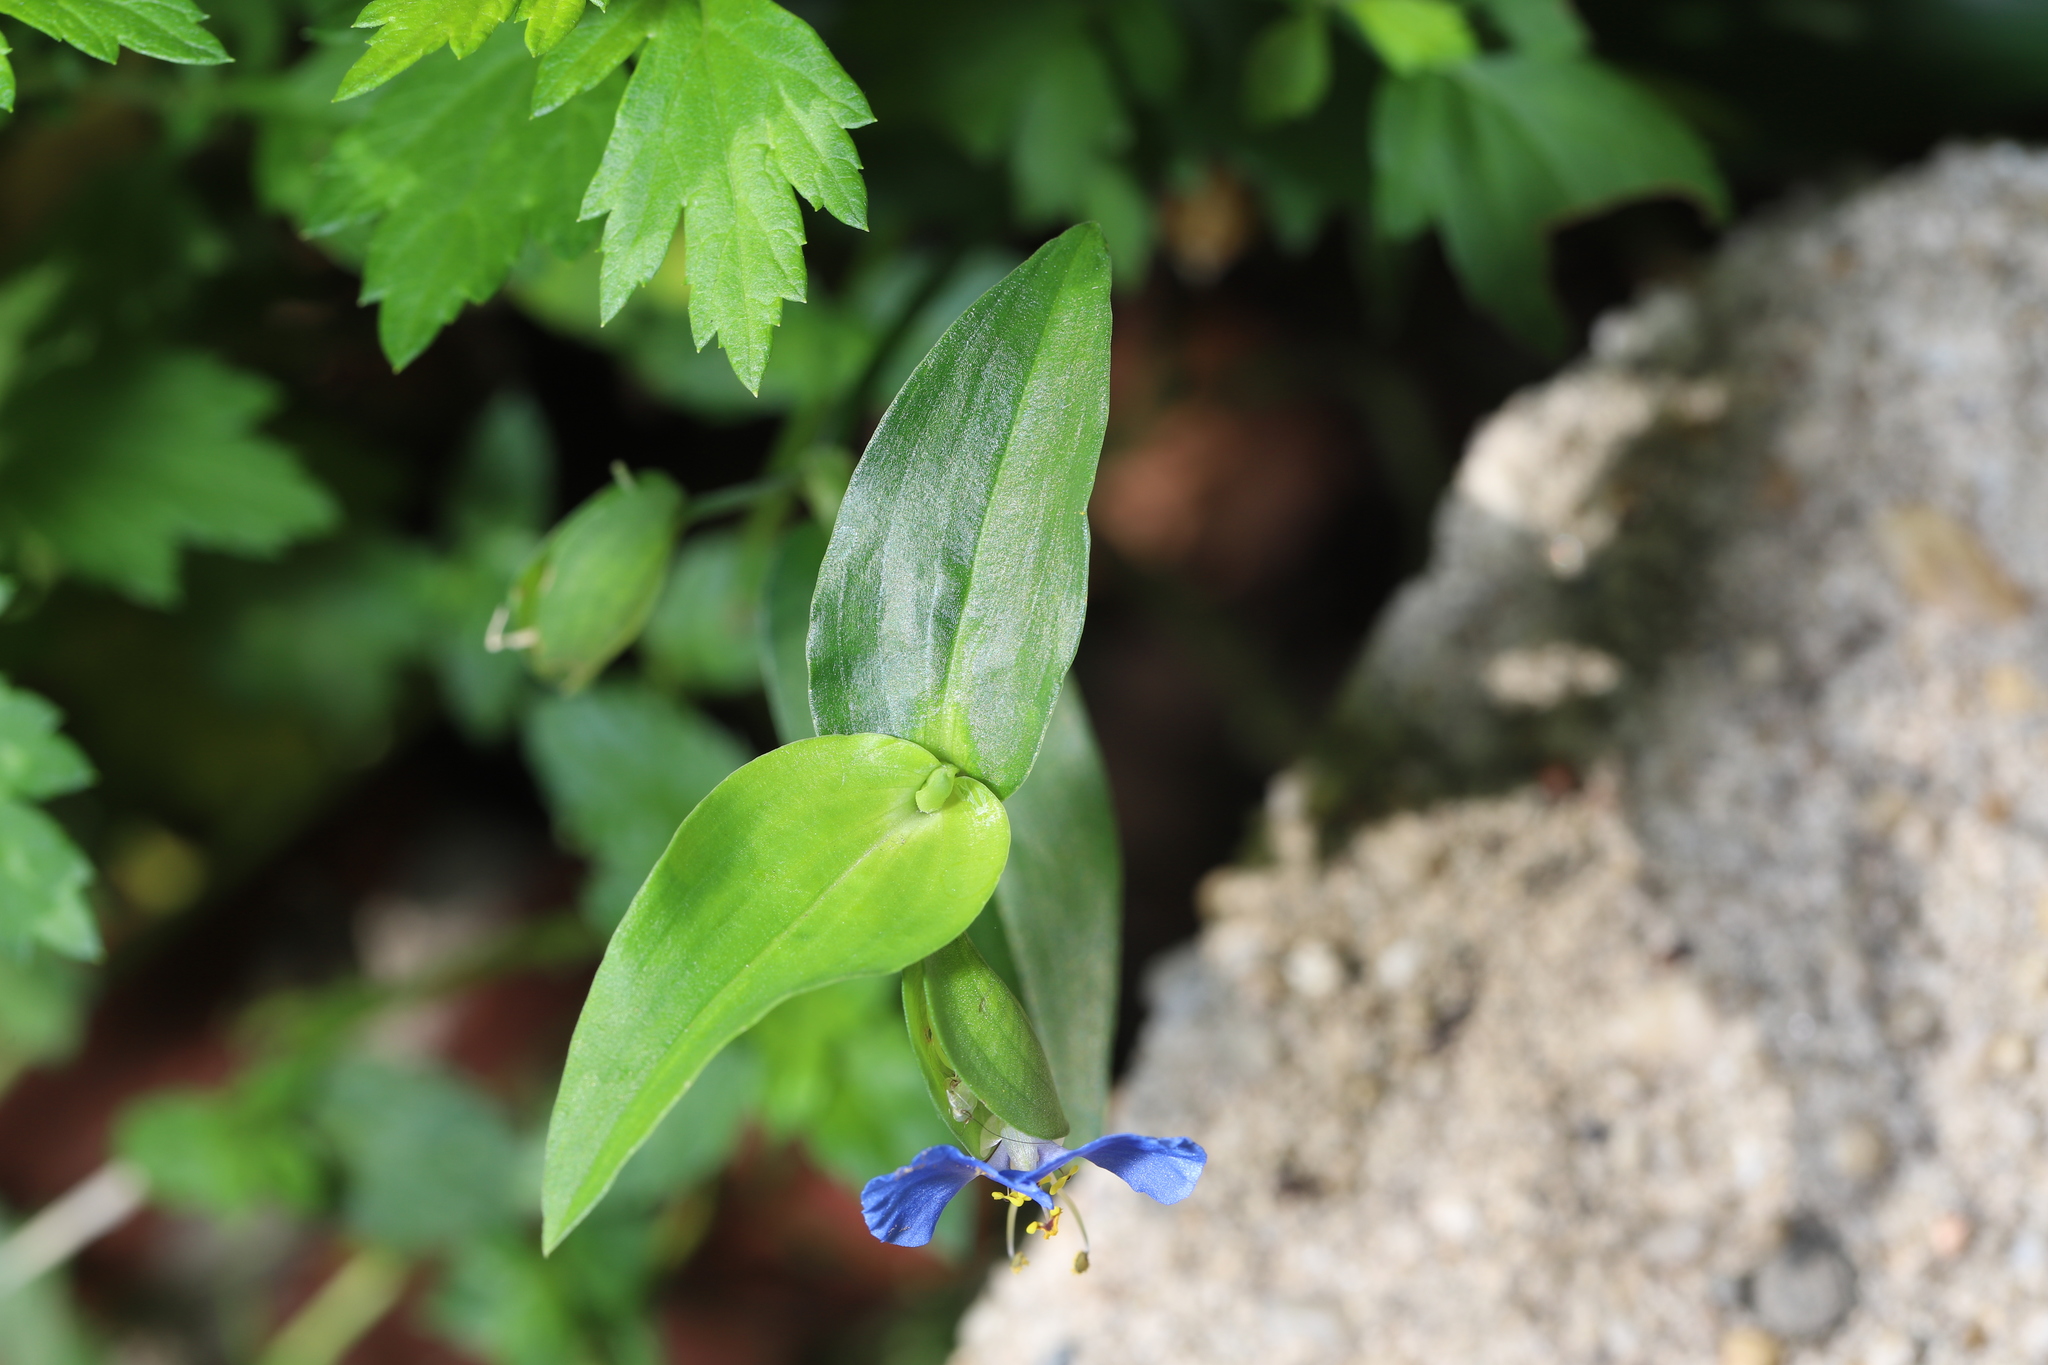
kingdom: Plantae
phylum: Tracheophyta
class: Liliopsida
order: Commelinales
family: Commelinaceae
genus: Commelina
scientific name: Commelina communis
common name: Asiatic dayflower
